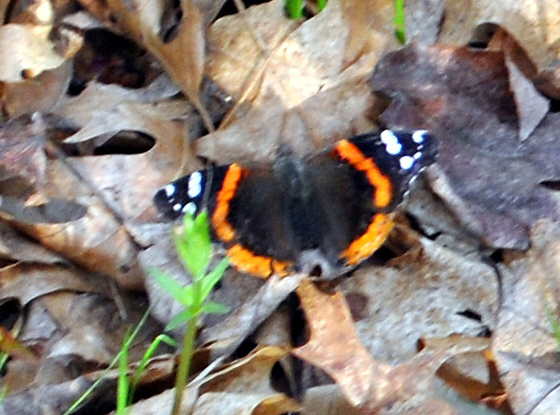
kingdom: Animalia
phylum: Arthropoda
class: Insecta
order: Lepidoptera
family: Nymphalidae
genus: Vanessa
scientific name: Vanessa atalanta
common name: Red admiral
